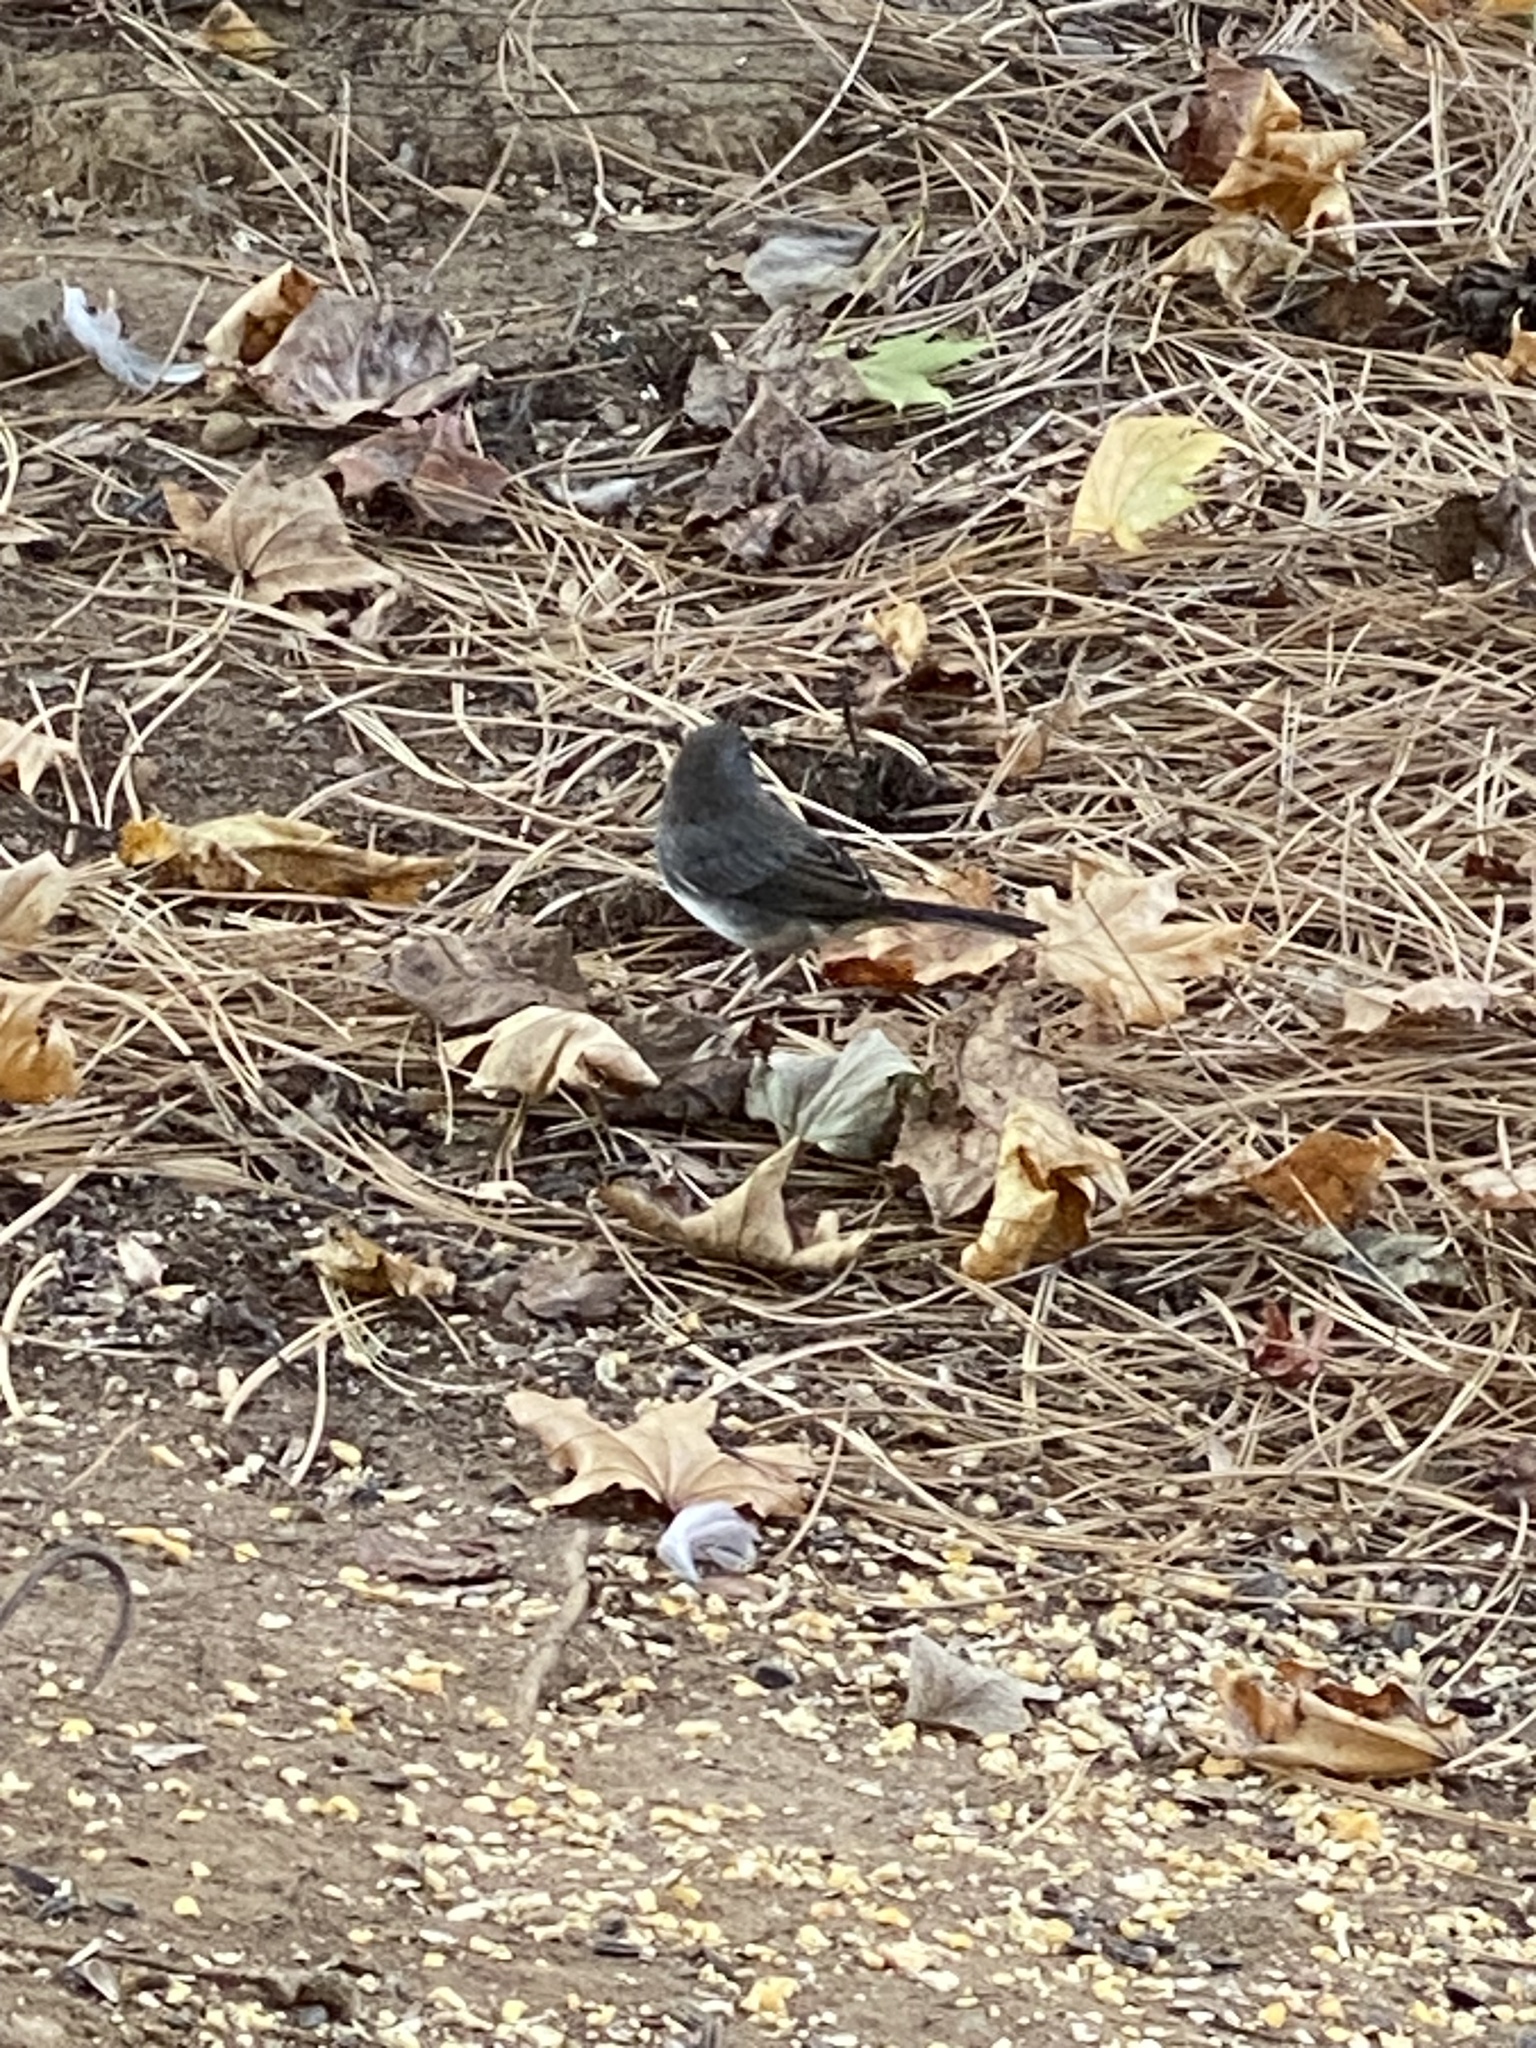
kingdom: Animalia
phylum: Chordata
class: Aves
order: Passeriformes
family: Passerellidae
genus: Junco
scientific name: Junco hyemalis
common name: Dark-eyed junco
